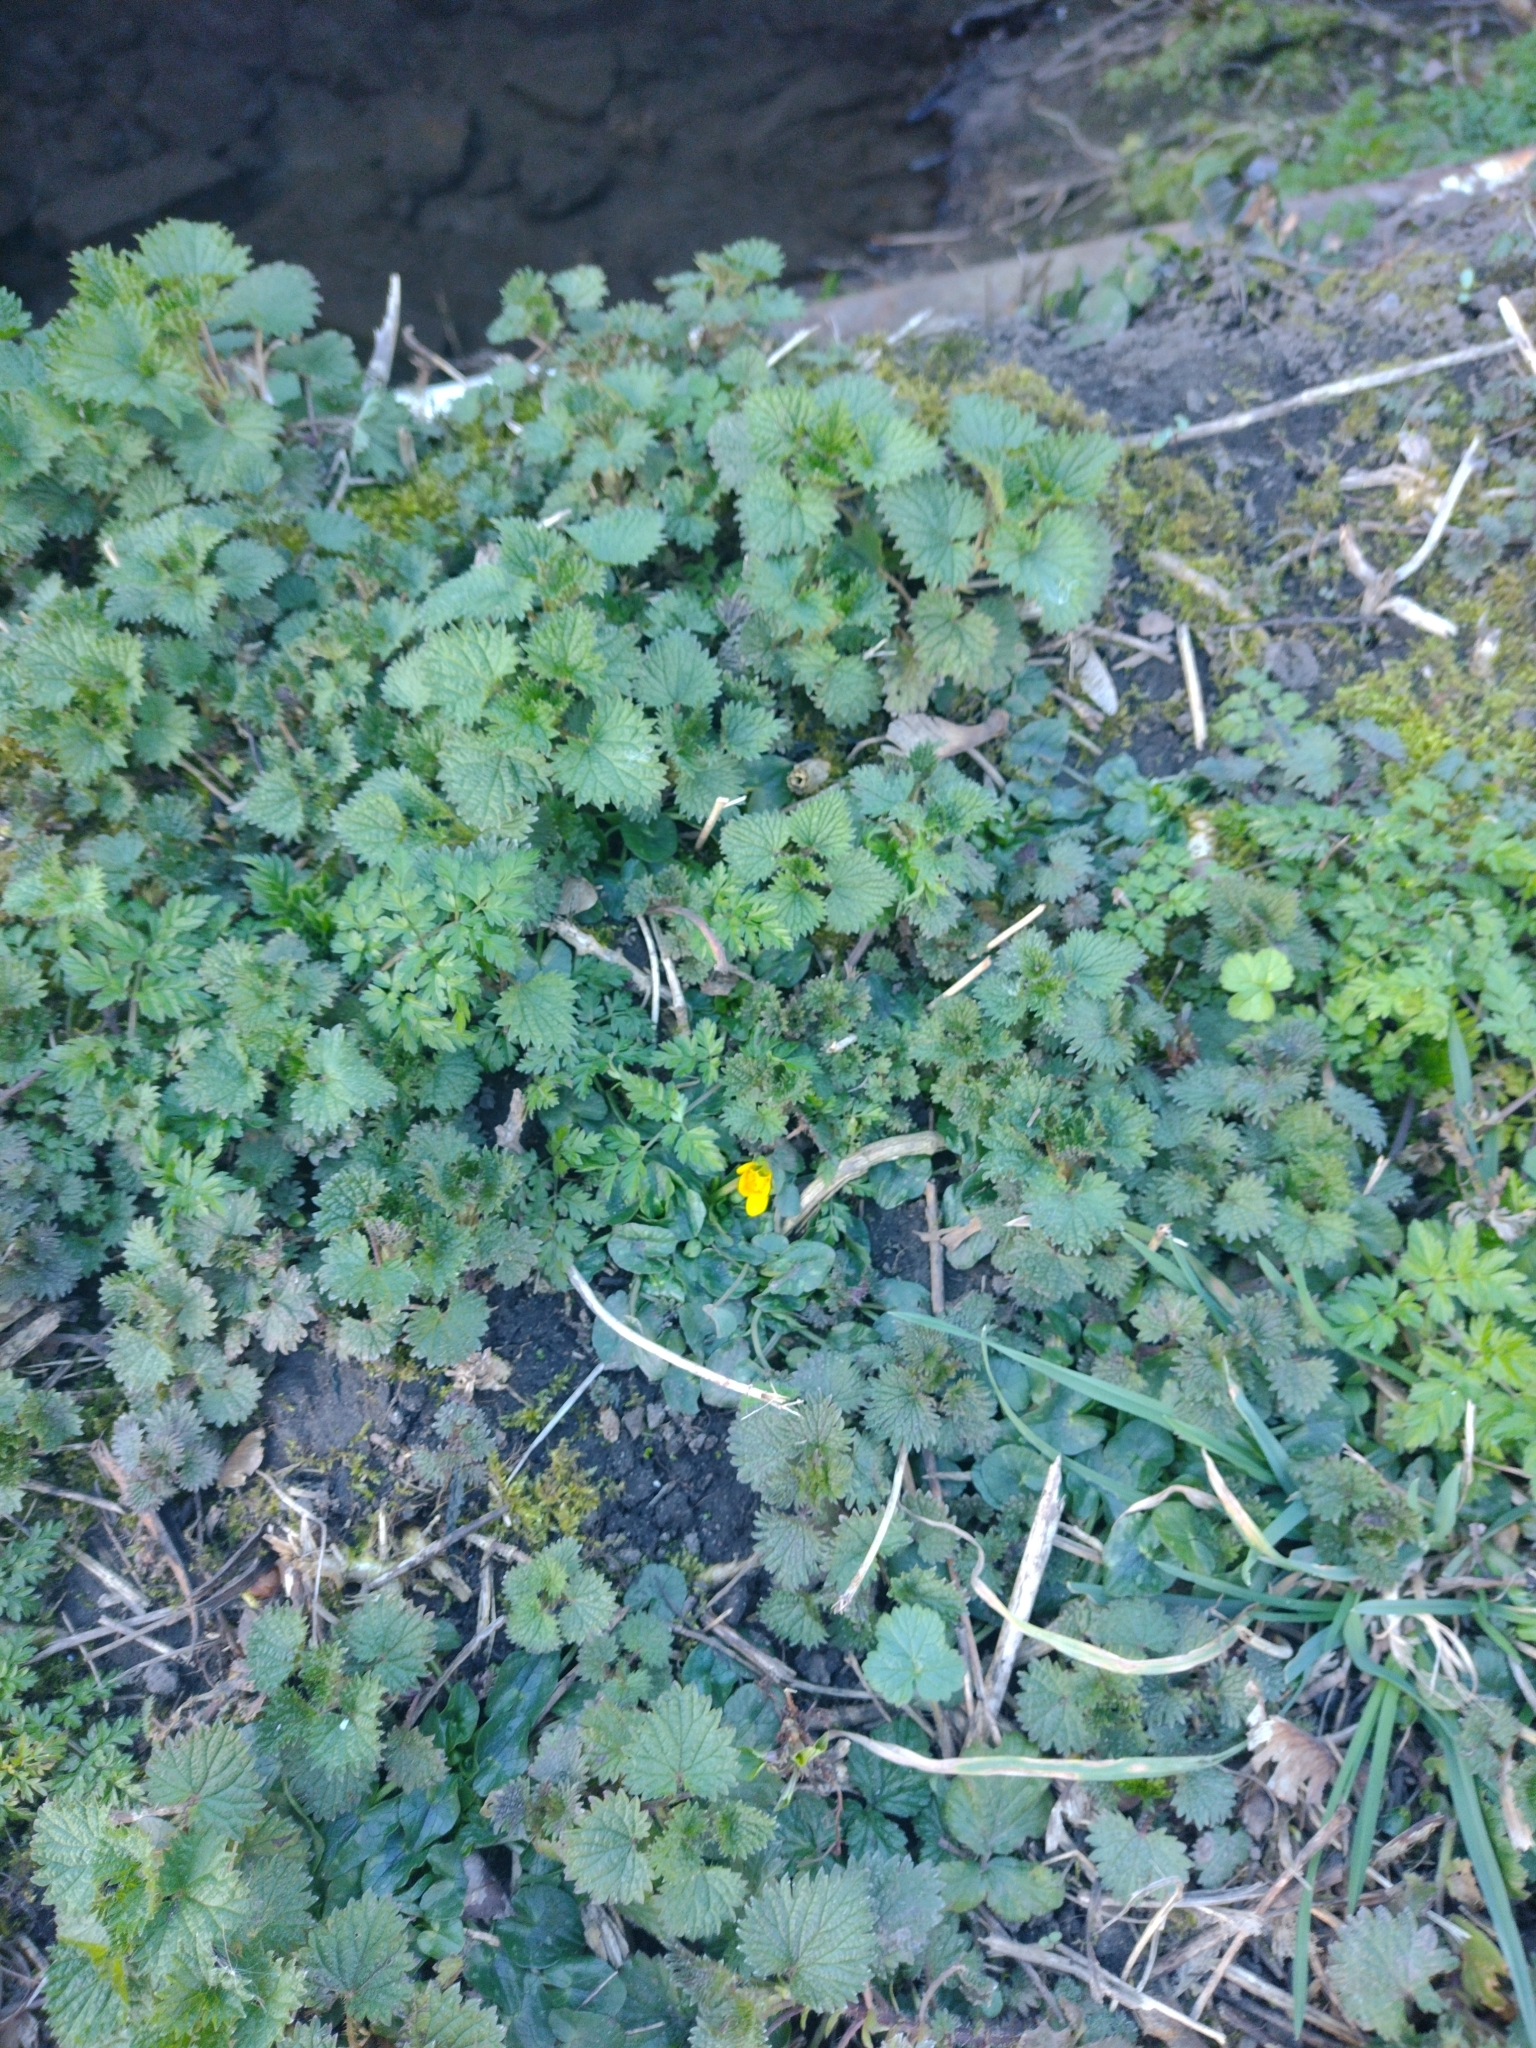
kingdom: Plantae
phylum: Tracheophyta
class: Magnoliopsida
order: Ranunculales
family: Ranunculaceae
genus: Ficaria
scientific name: Ficaria verna
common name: Lesser celandine
